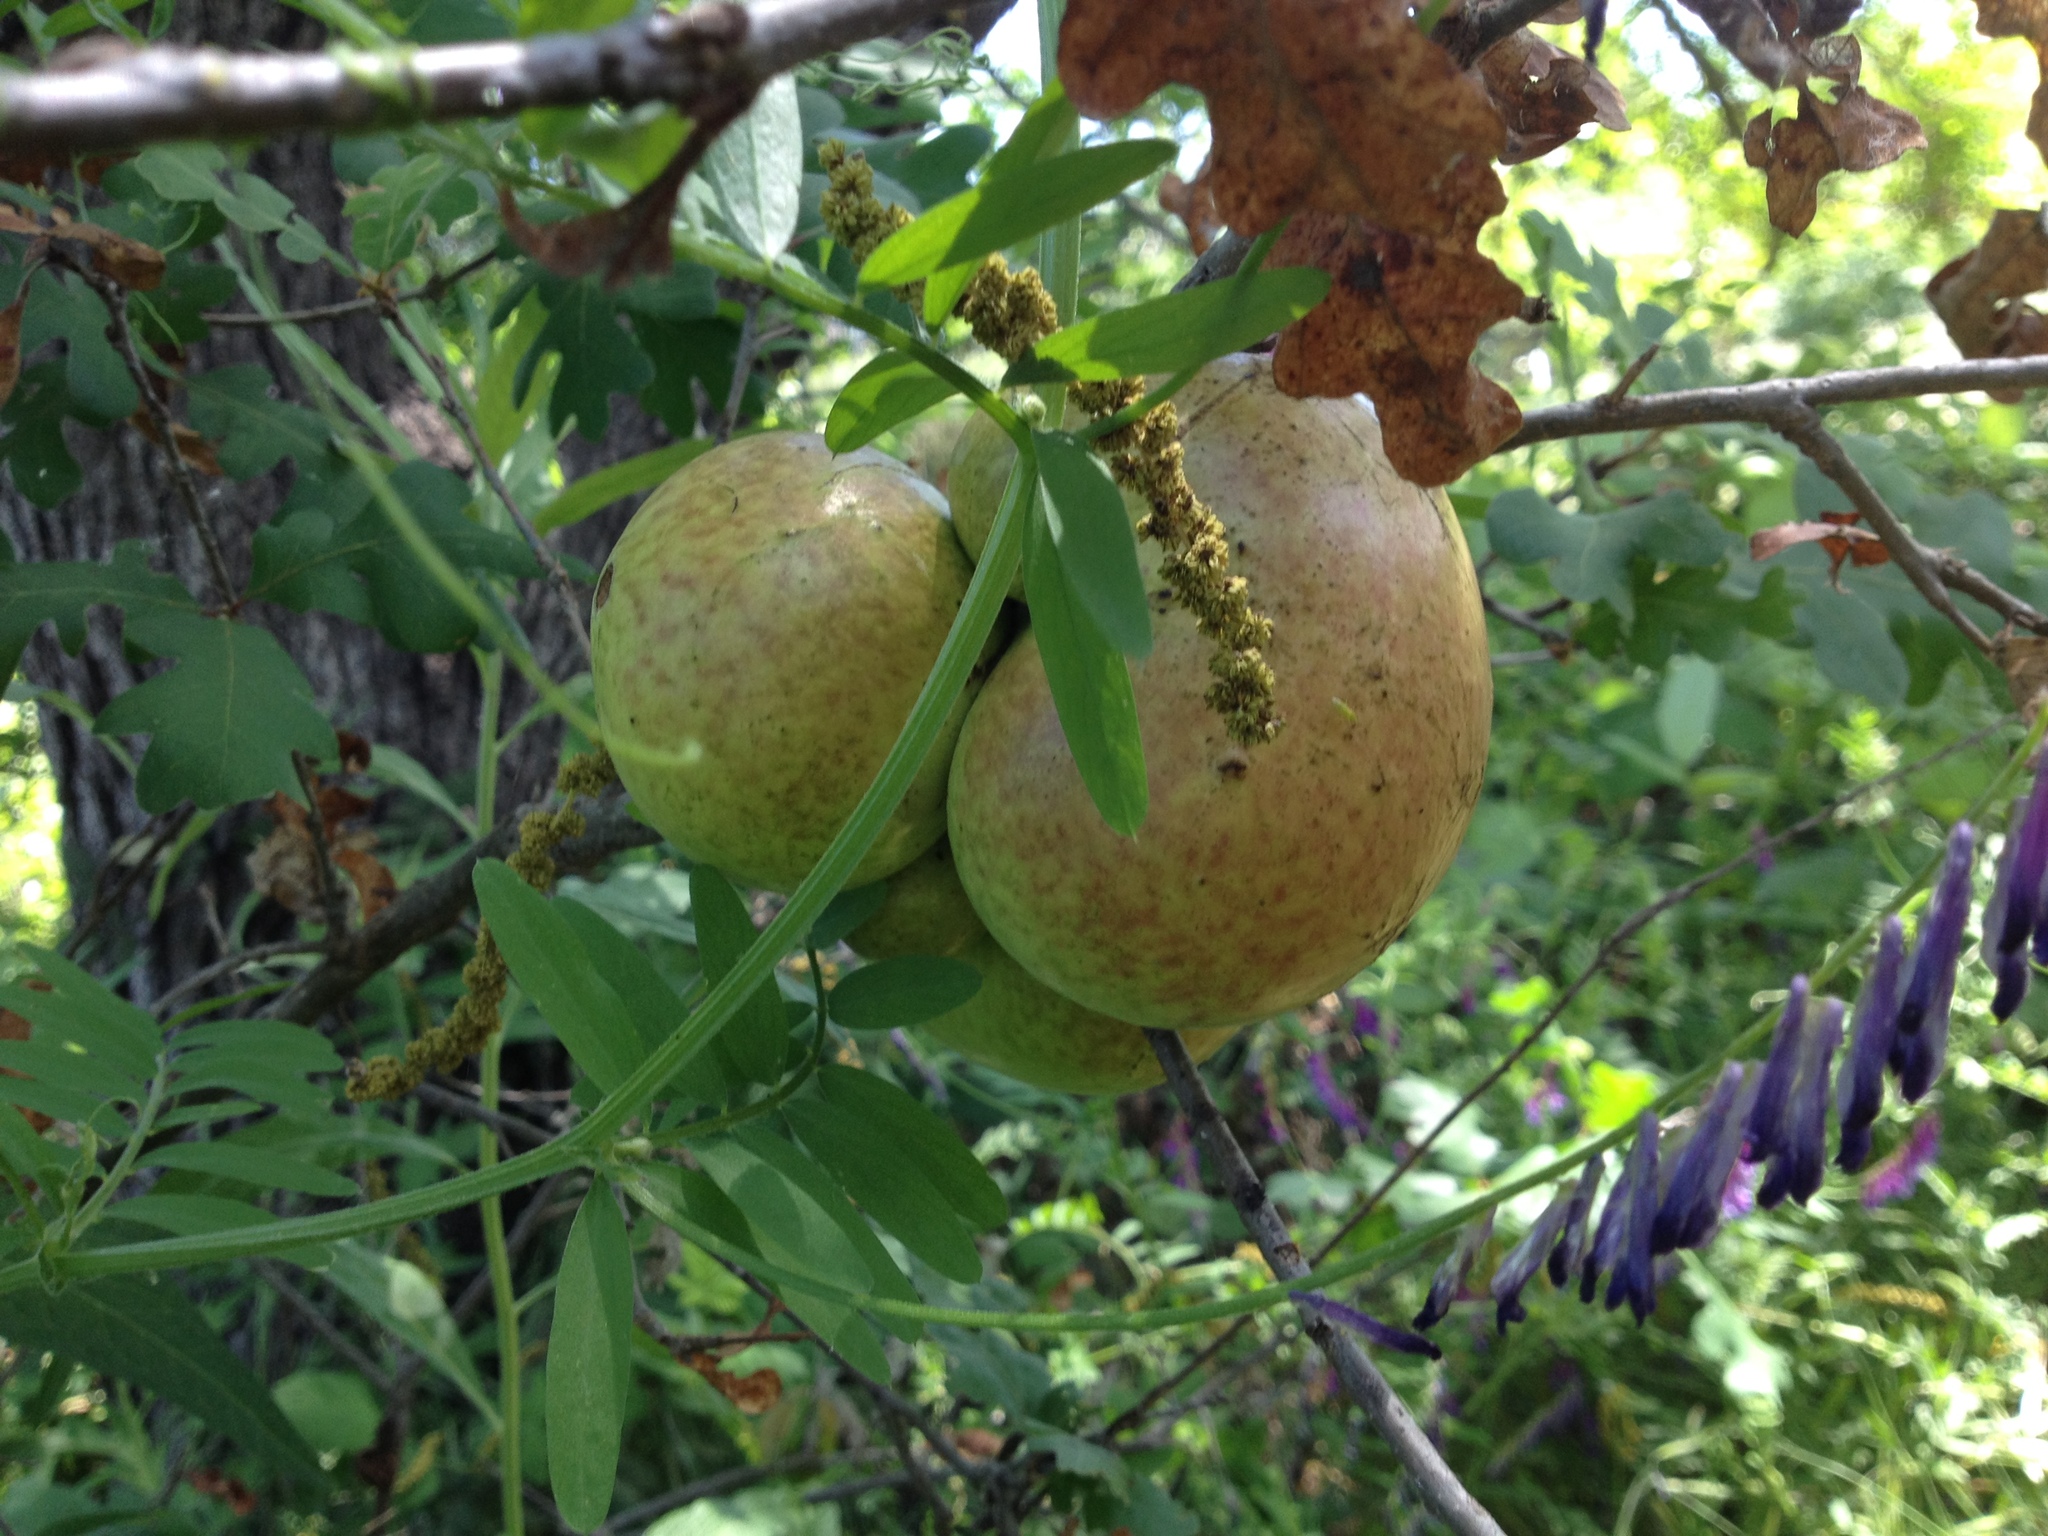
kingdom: Animalia
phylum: Arthropoda
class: Insecta
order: Hymenoptera
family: Cynipidae
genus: Andricus
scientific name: Andricus quercuscalifornicus
